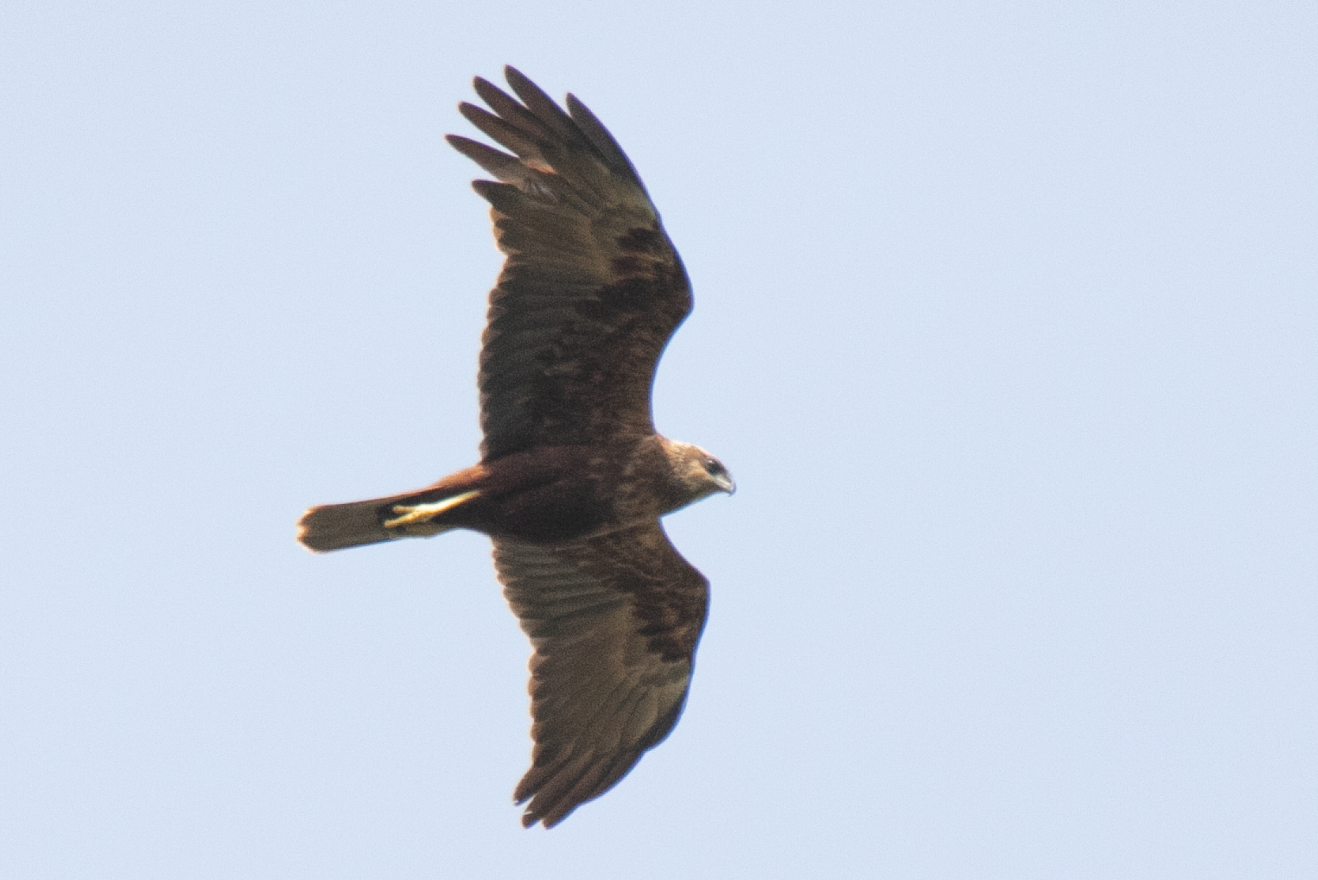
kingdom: Animalia
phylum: Chordata
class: Aves
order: Accipitriformes
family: Accipitridae
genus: Circus
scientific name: Circus aeruginosus
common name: Western marsh harrier
